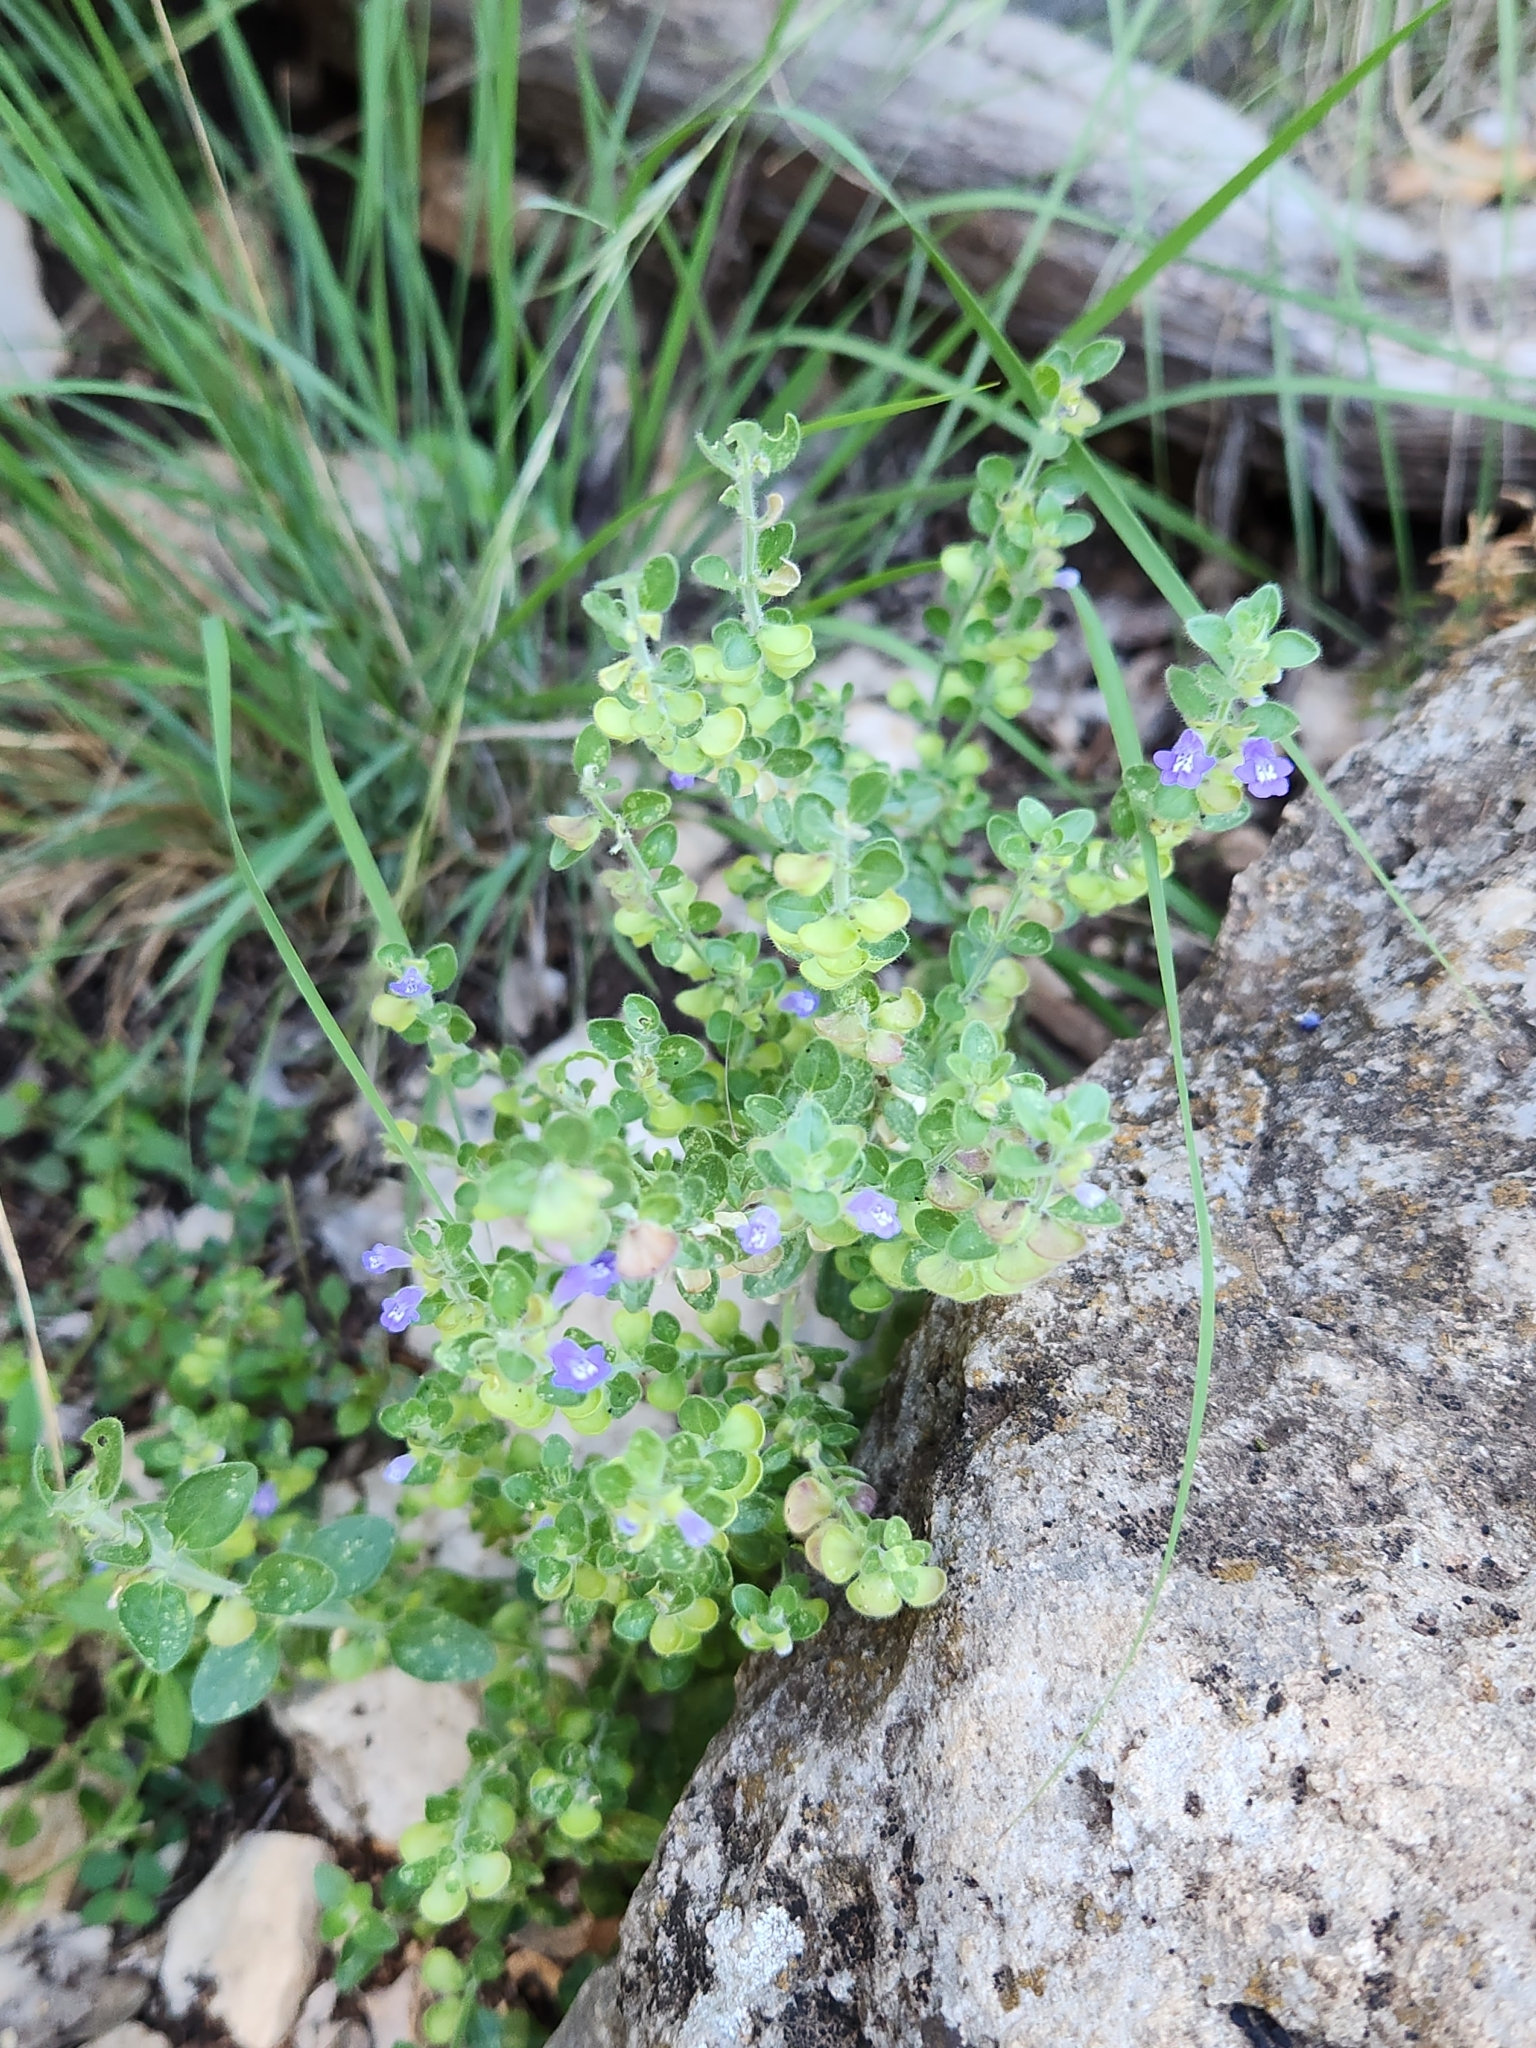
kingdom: Plantae
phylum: Tracheophyta
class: Magnoliopsida
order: Lamiales
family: Lamiaceae
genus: Scutellaria
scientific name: Scutellaria drummondii
